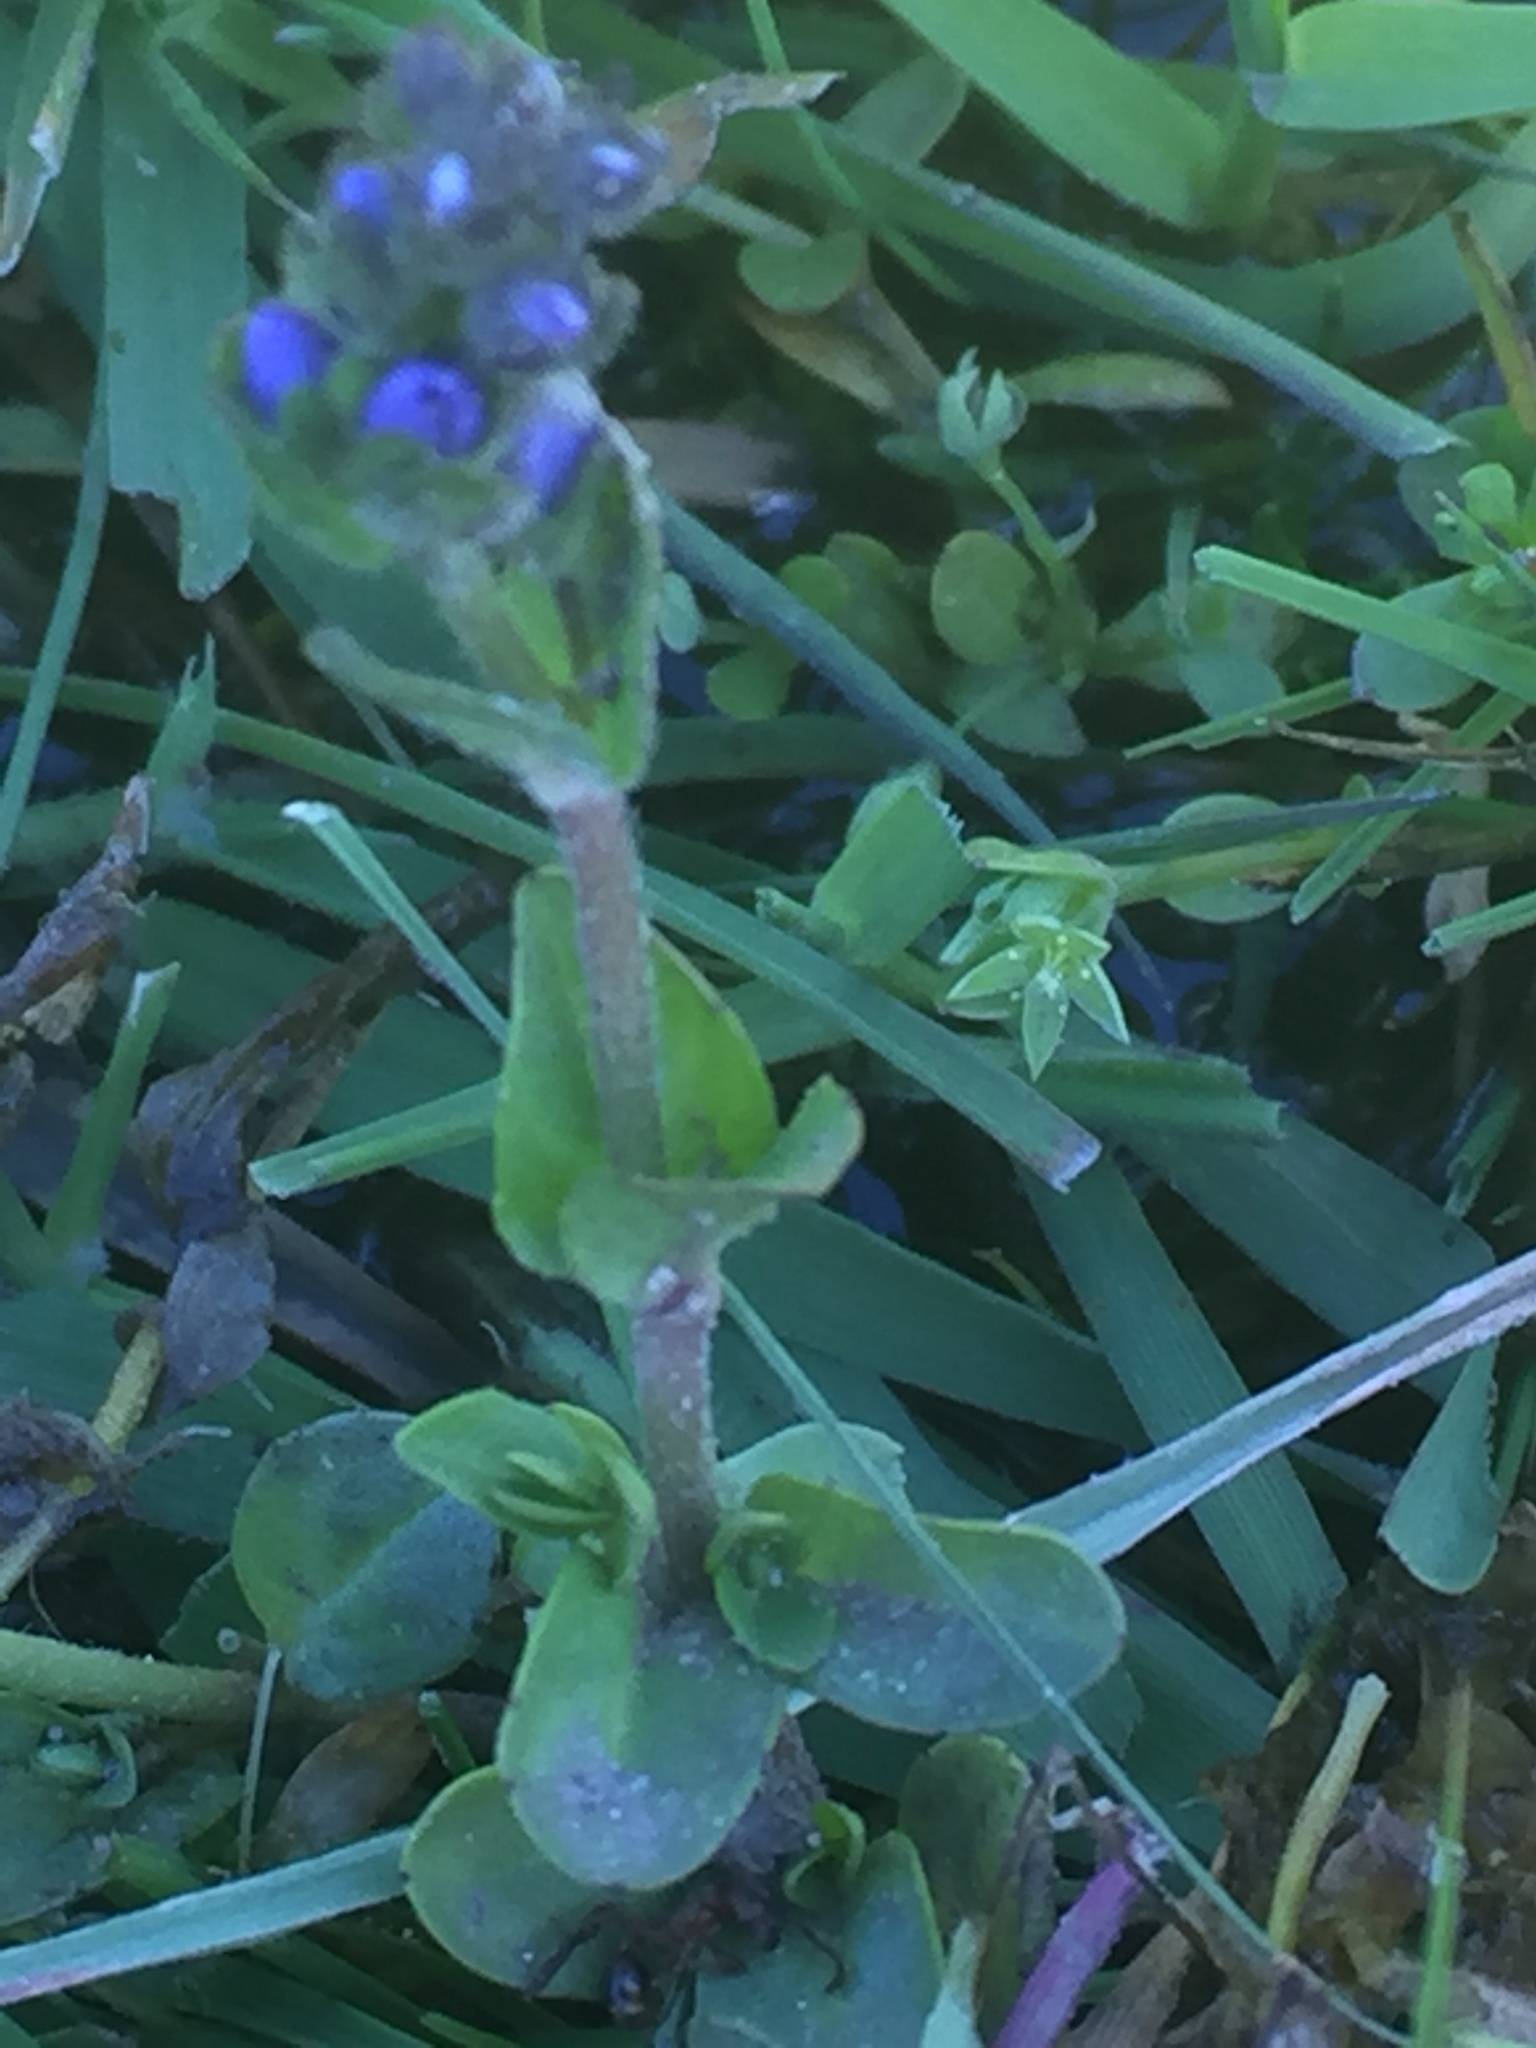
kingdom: Plantae
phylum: Tracheophyta
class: Magnoliopsida
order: Lamiales
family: Plantaginaceae
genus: Veronica
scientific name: Veronica nevadensis
